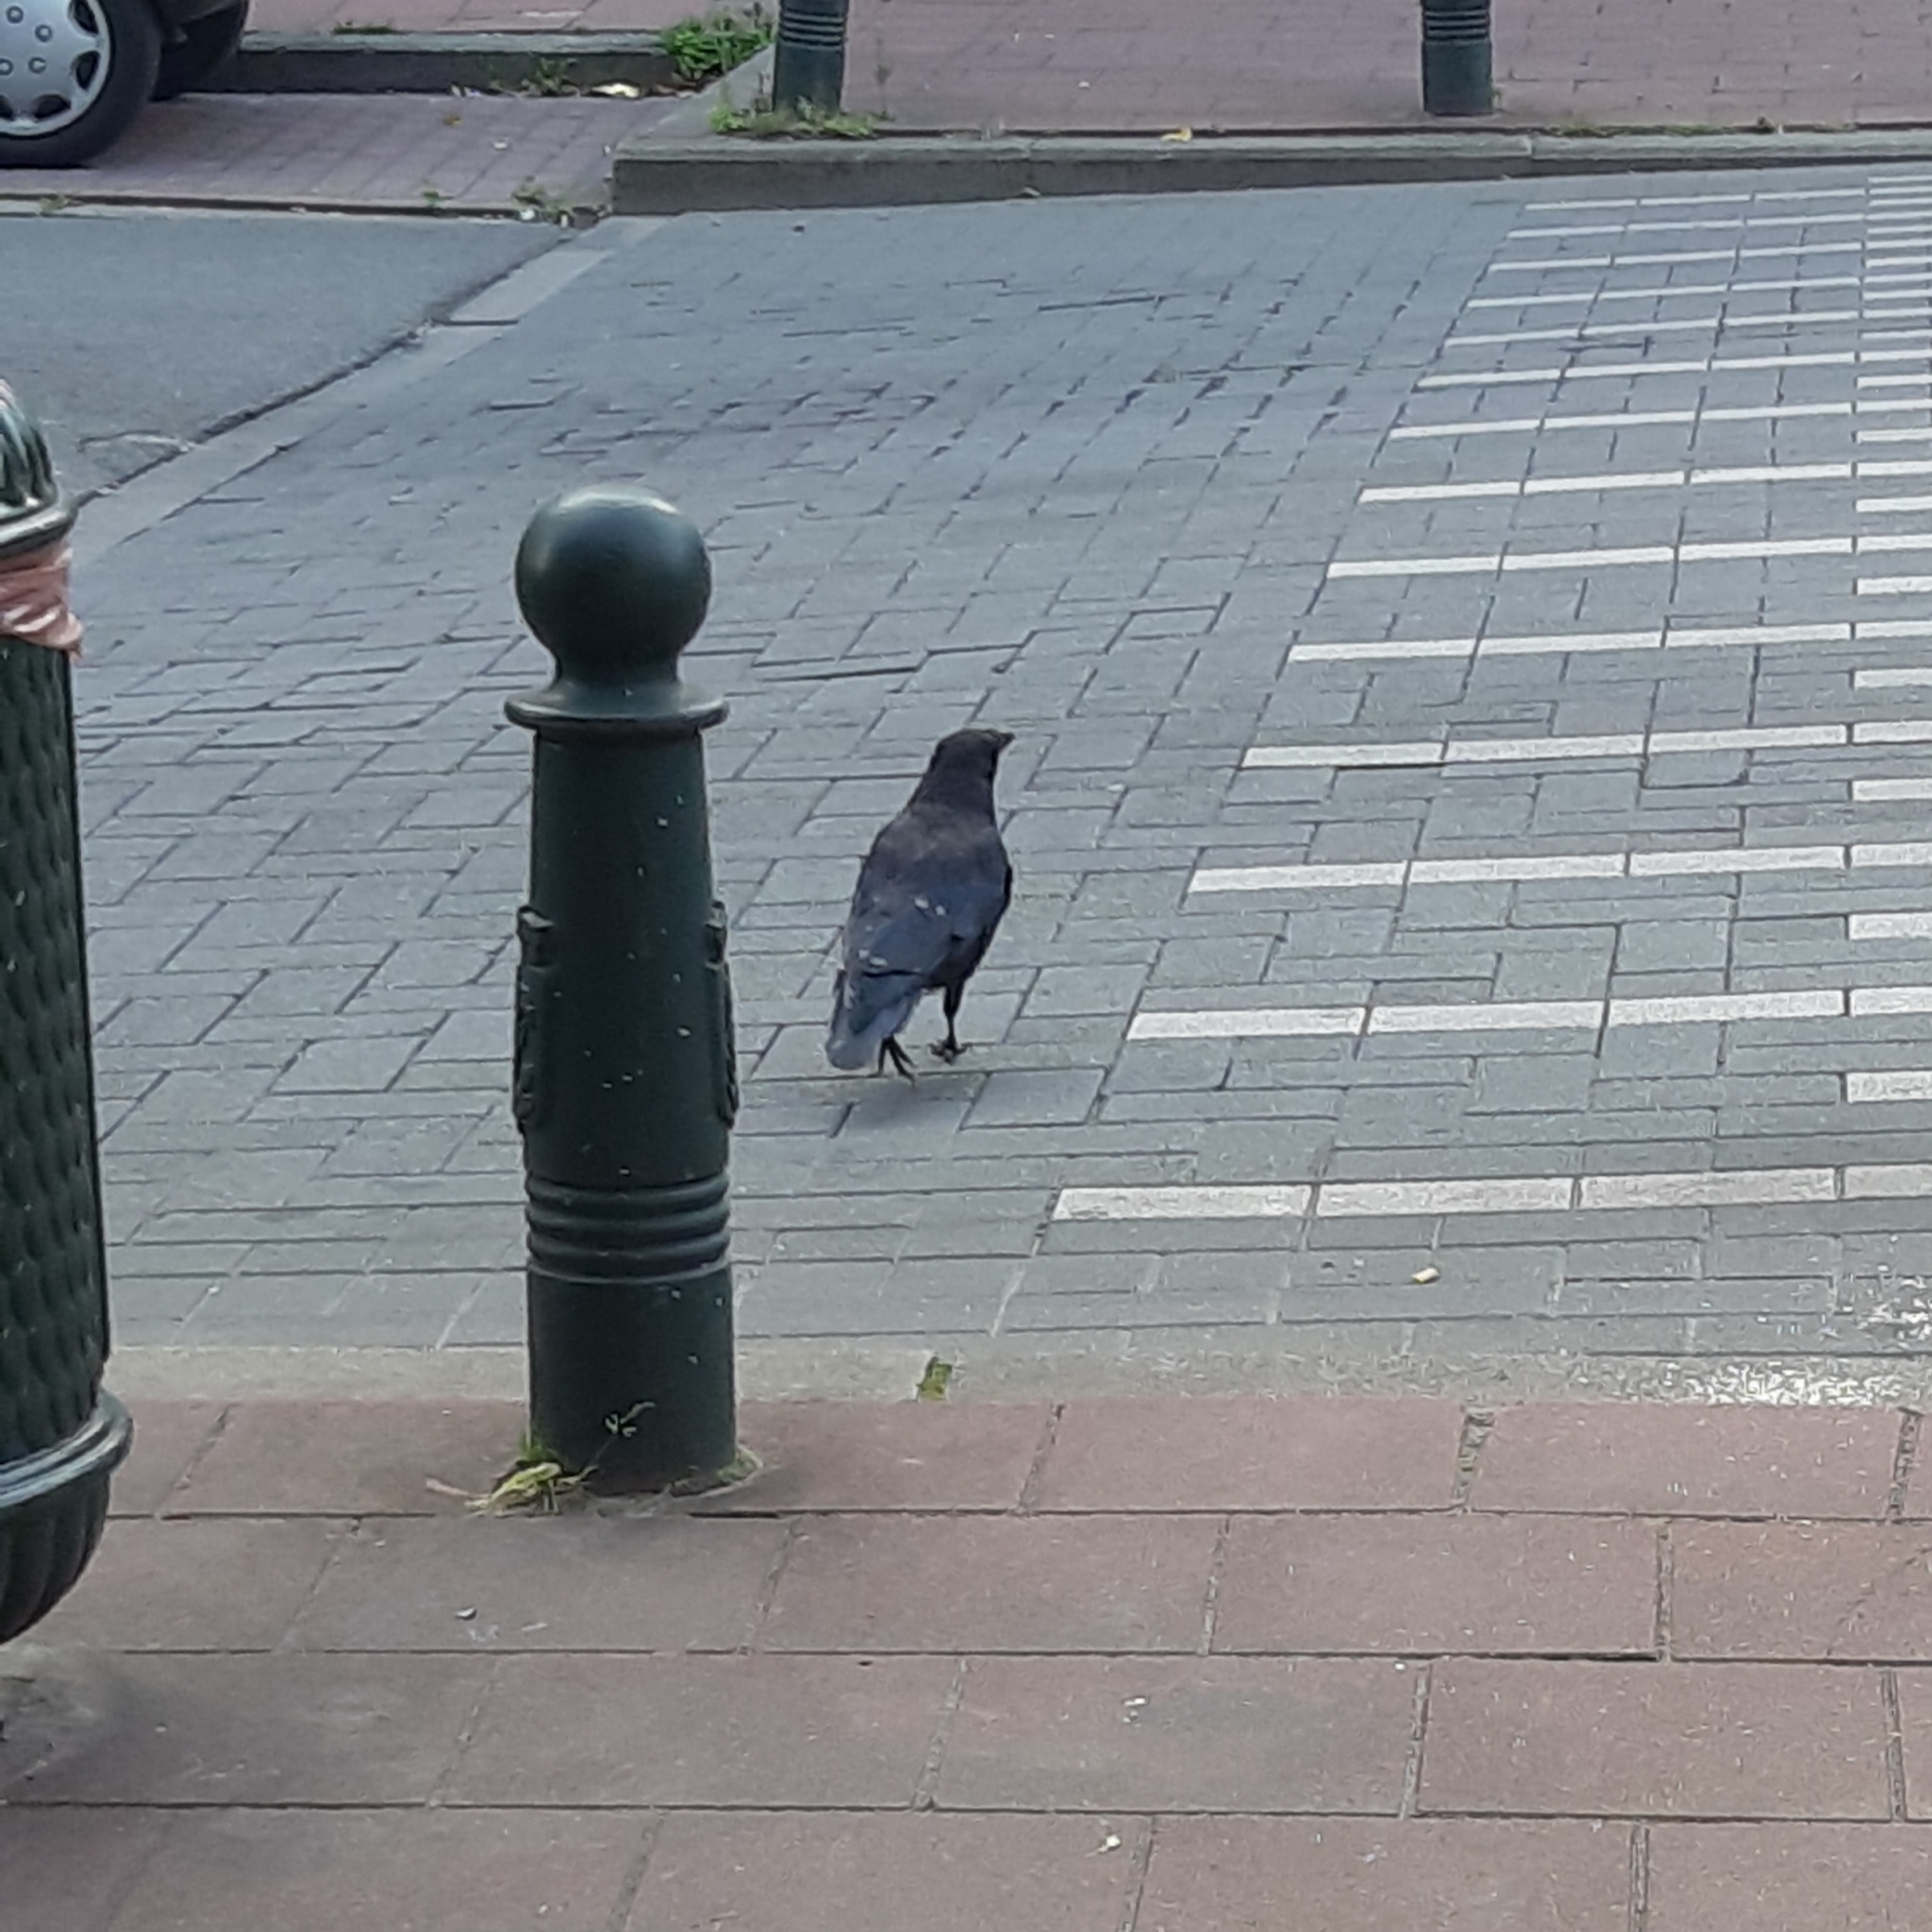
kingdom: Animalia
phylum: Chordata
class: Aves
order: Passeriformes
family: Corvidae
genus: Corvus
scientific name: Corvus corone
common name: Carrion crow
